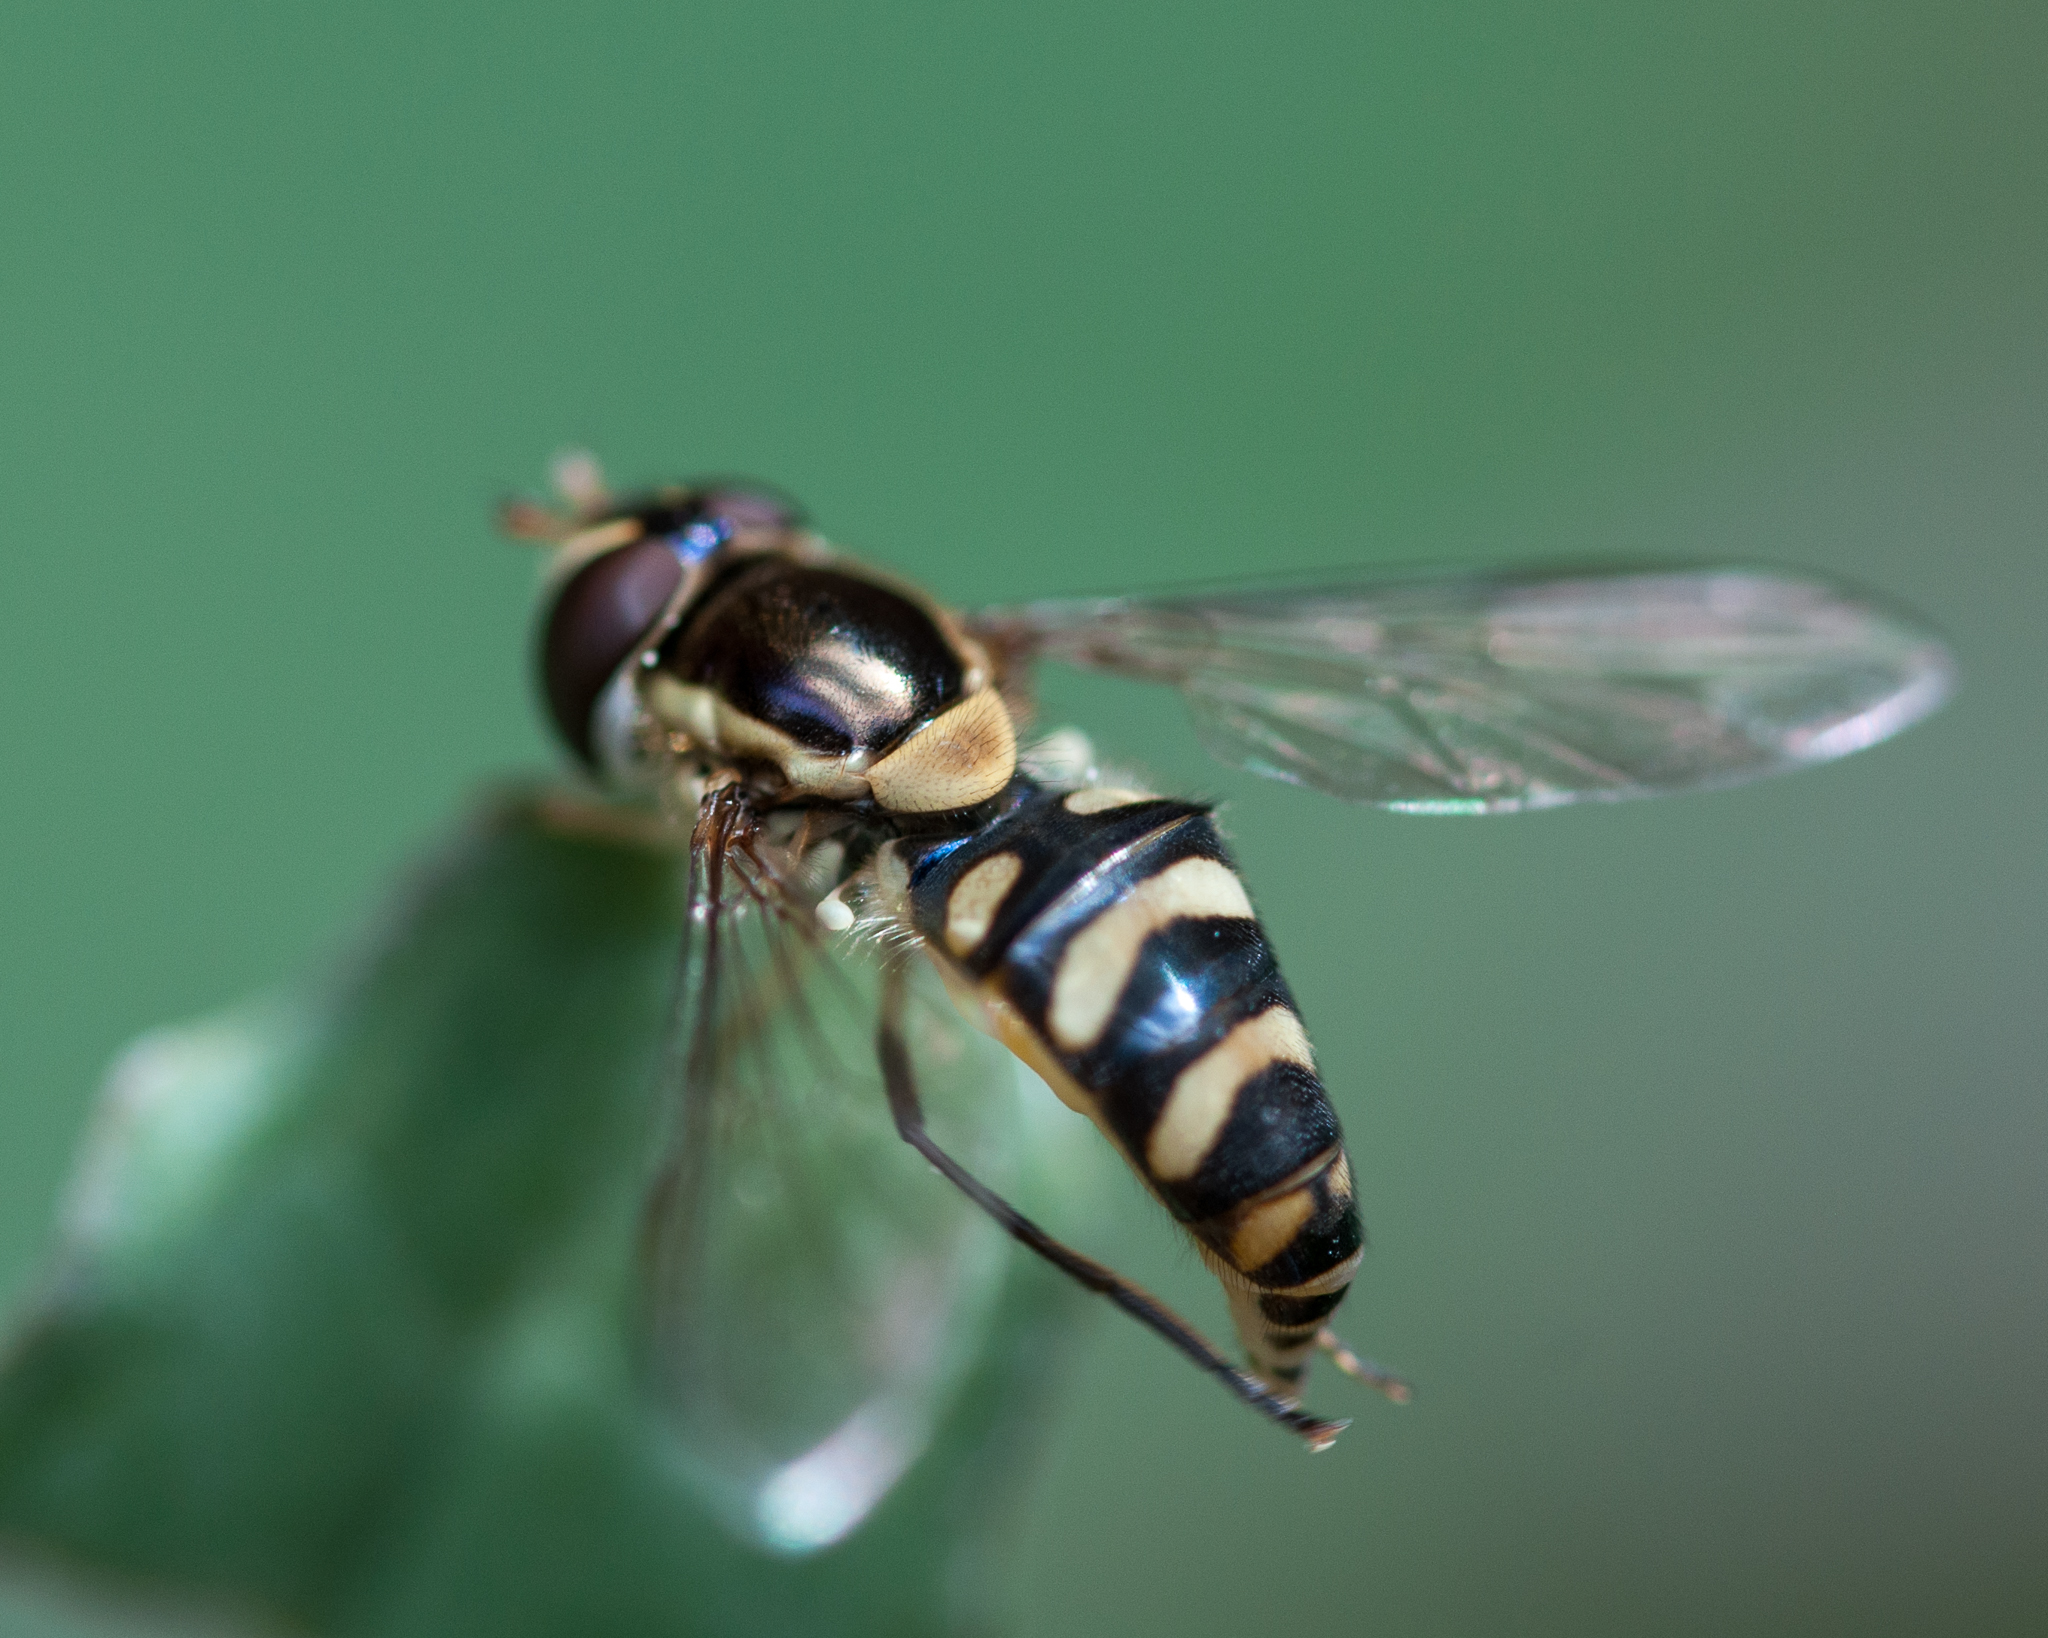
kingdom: Animalia
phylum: Arthropoda
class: Insecta
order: Diptera
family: Syrphidae
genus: Allograpta
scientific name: Allograpta fuscotibialis
